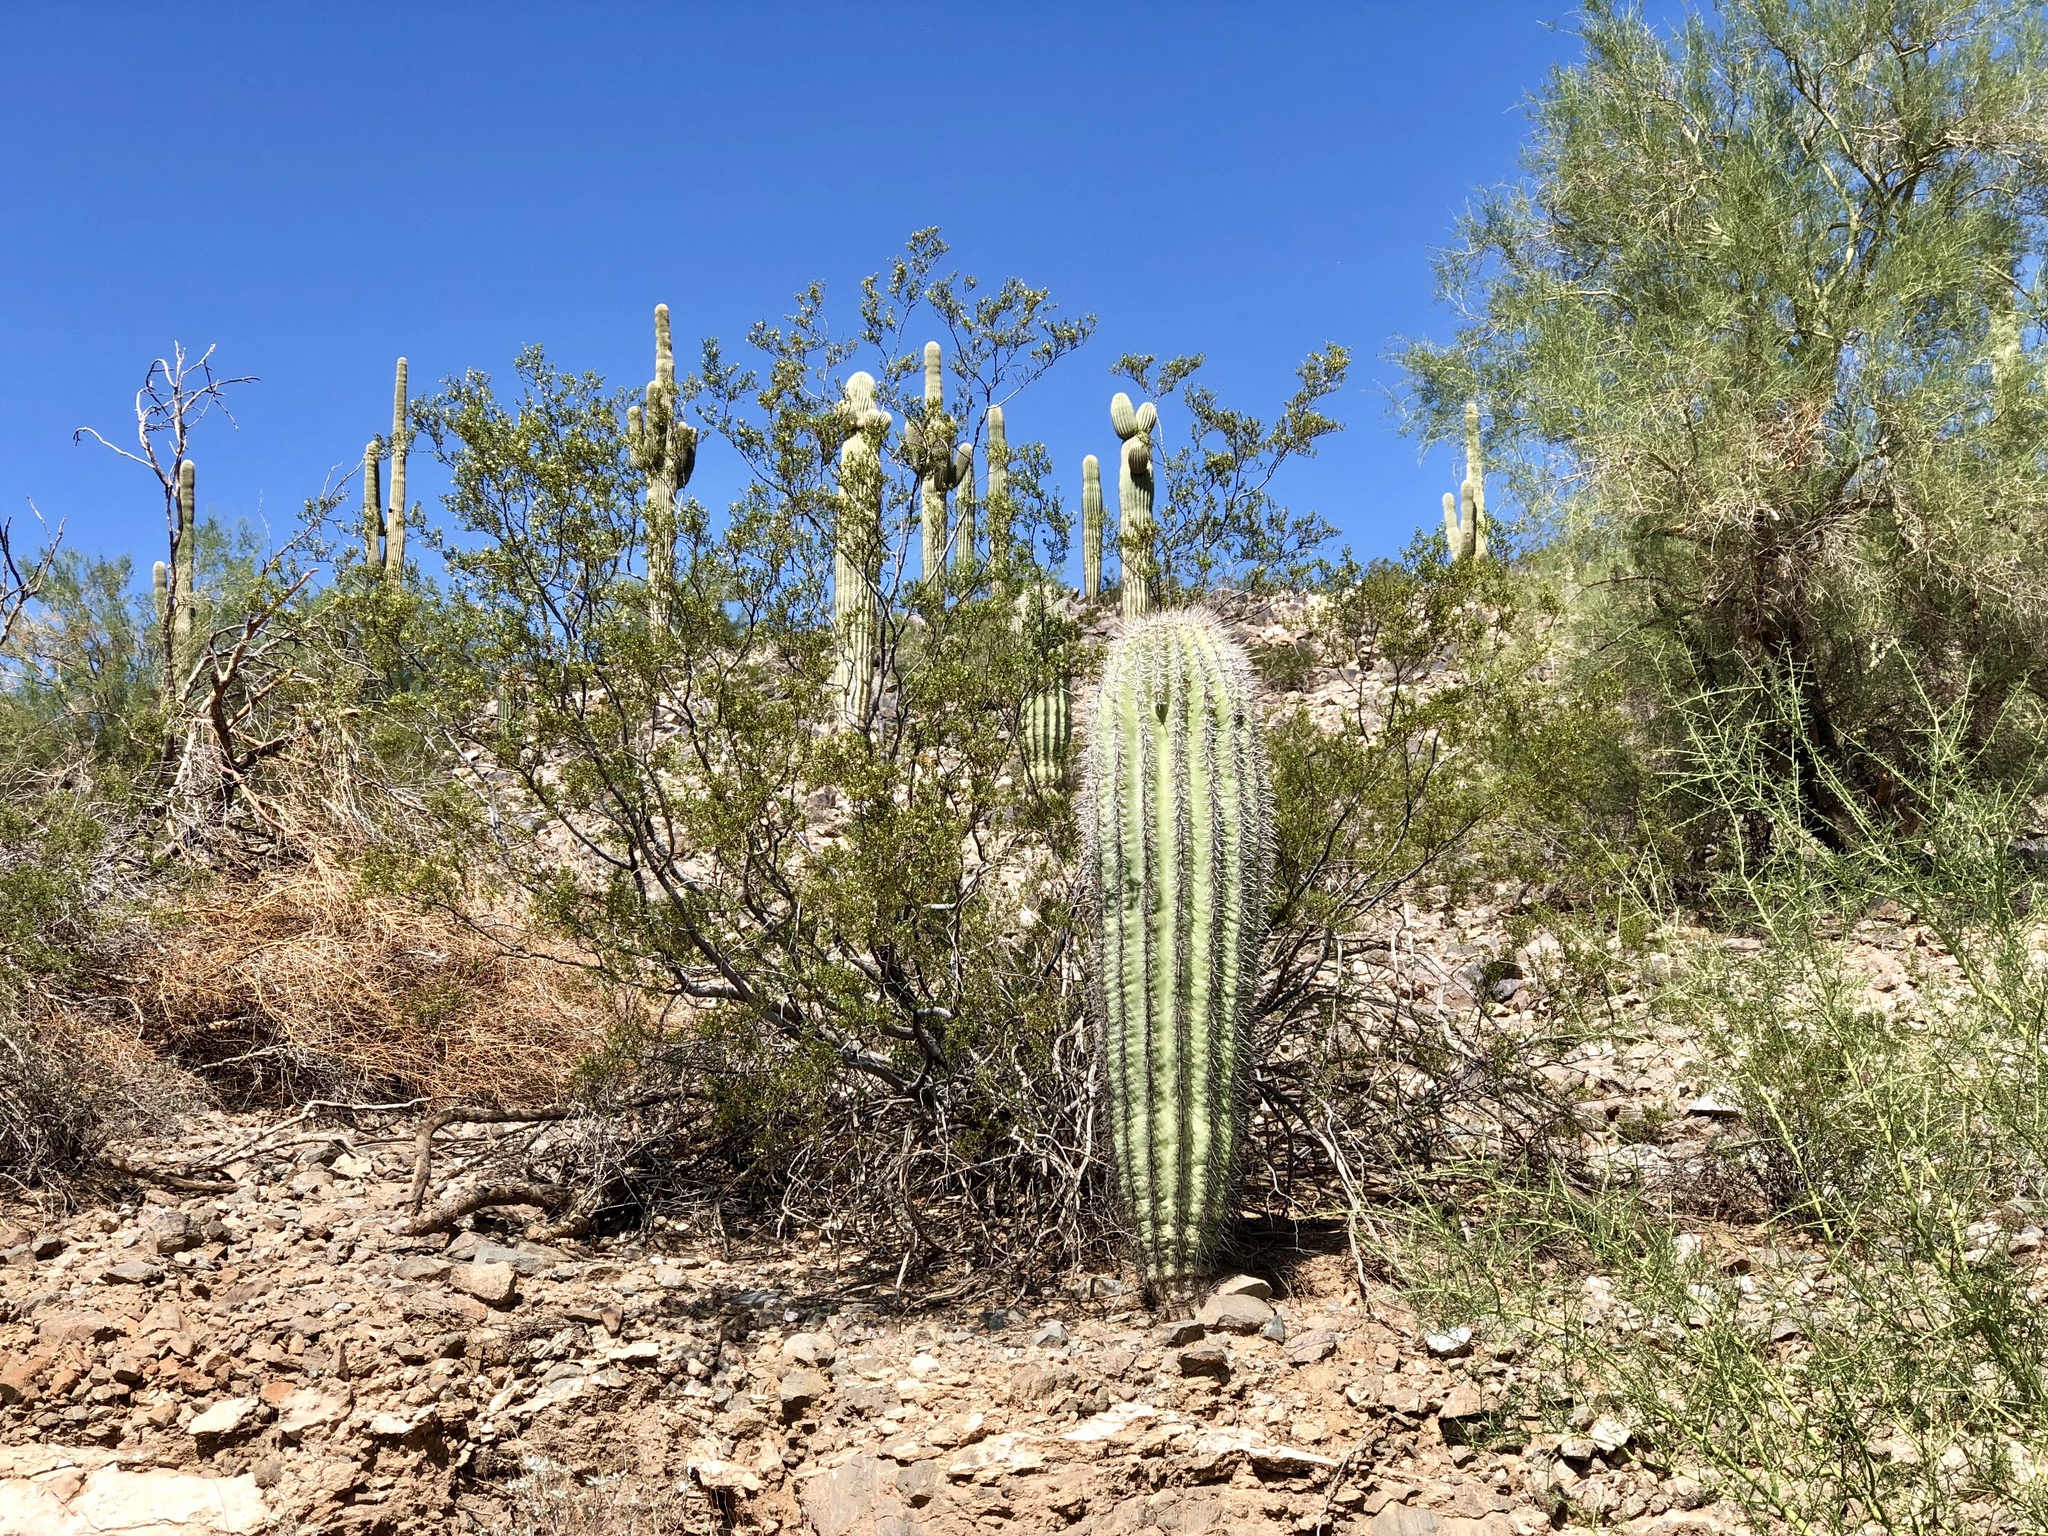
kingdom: Plantae
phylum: Tracheophyta
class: Magnoliopsida
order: Caryophyllales
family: Cactaceae
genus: Carnegiea
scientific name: Carnegiea gigantea
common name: Saguaro
